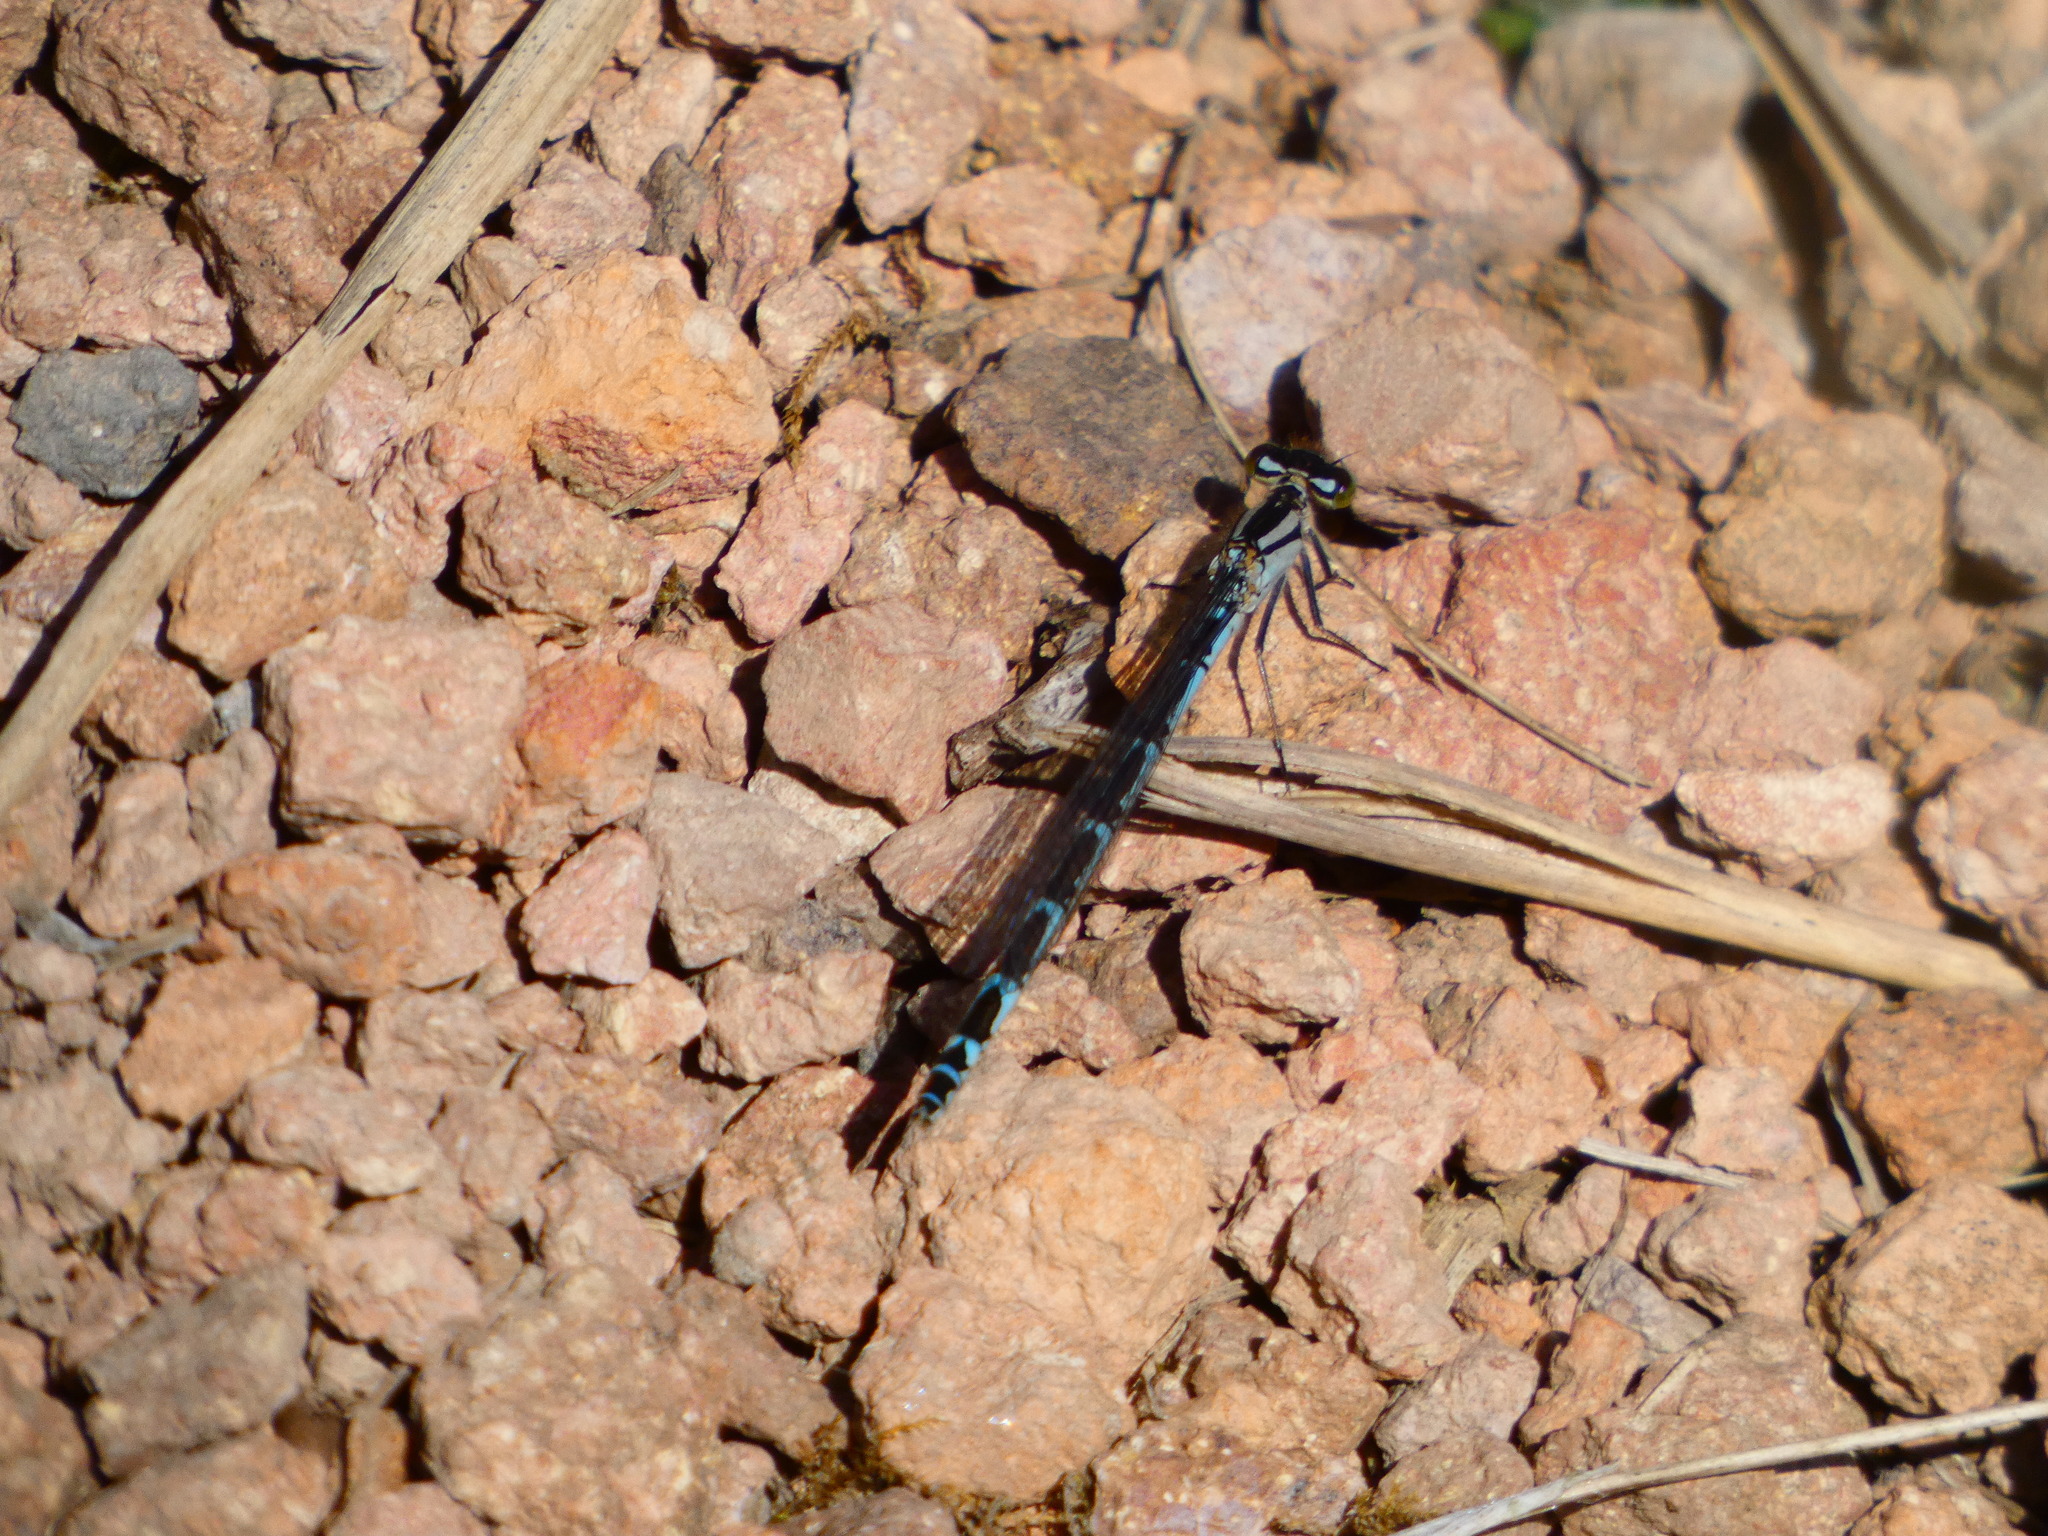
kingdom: Animalia
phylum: Arthropoda
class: Insecta
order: Odonata
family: Coenagrionidae
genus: Enallagma
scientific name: Enallagma cyathigerum
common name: Common blue damselfly
